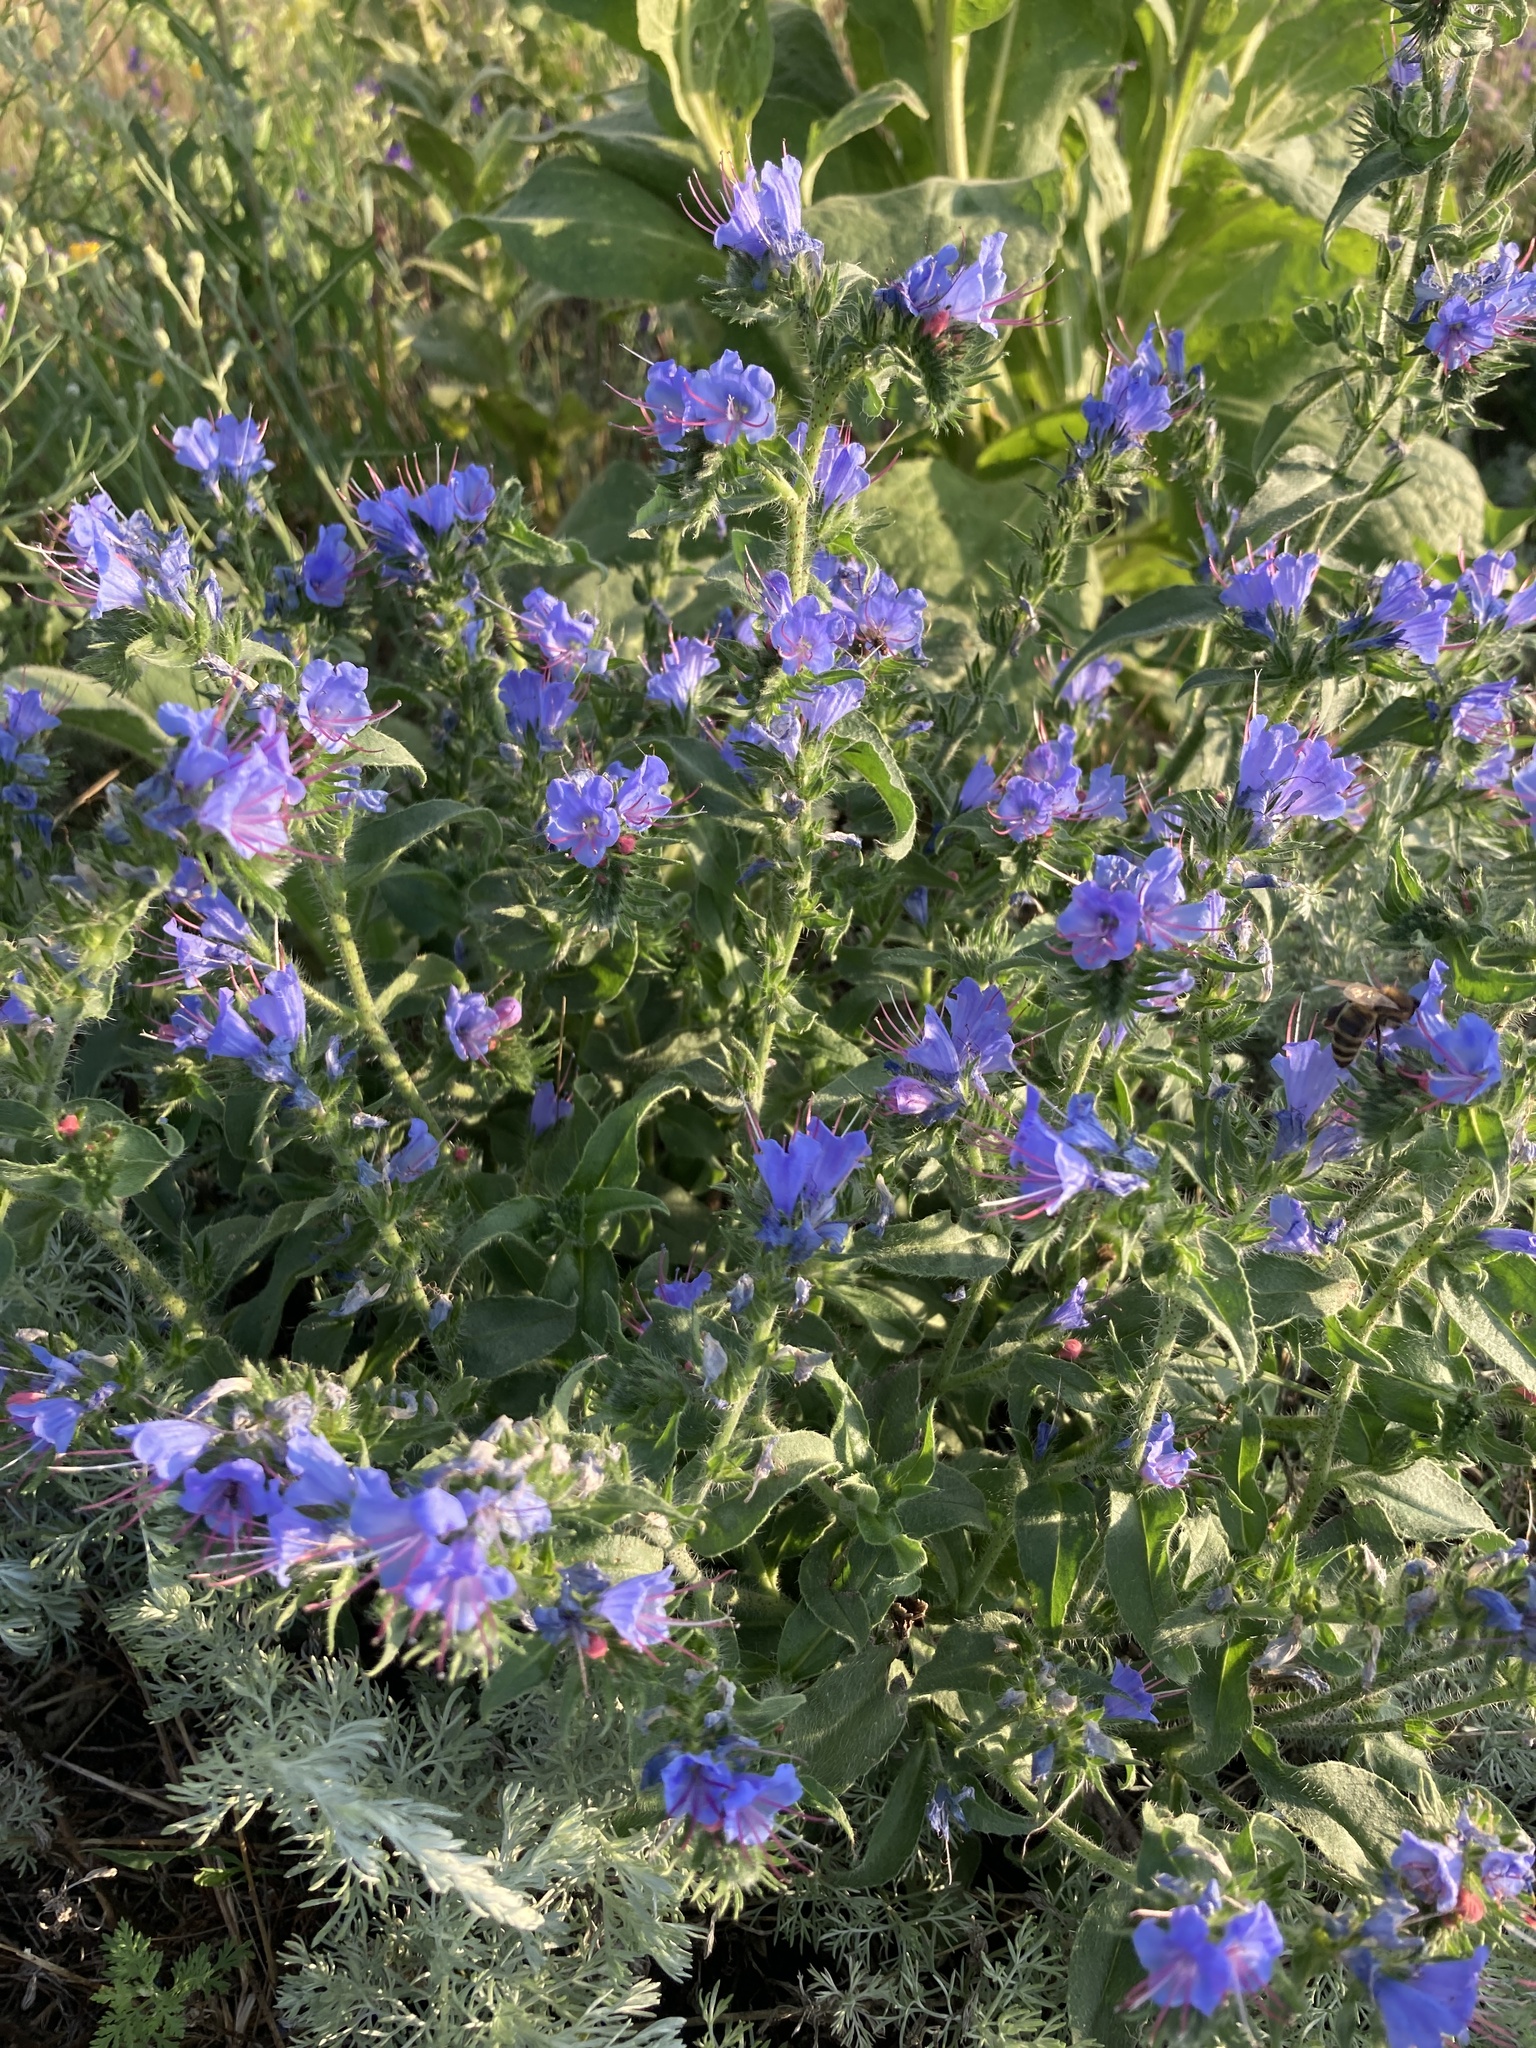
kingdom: Plantae
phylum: Tracheophyta
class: Magnoliopsida
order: Boraginales
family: Boraginaceae
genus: Echium
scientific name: Echium vulgare
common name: Common viper's bugloss
